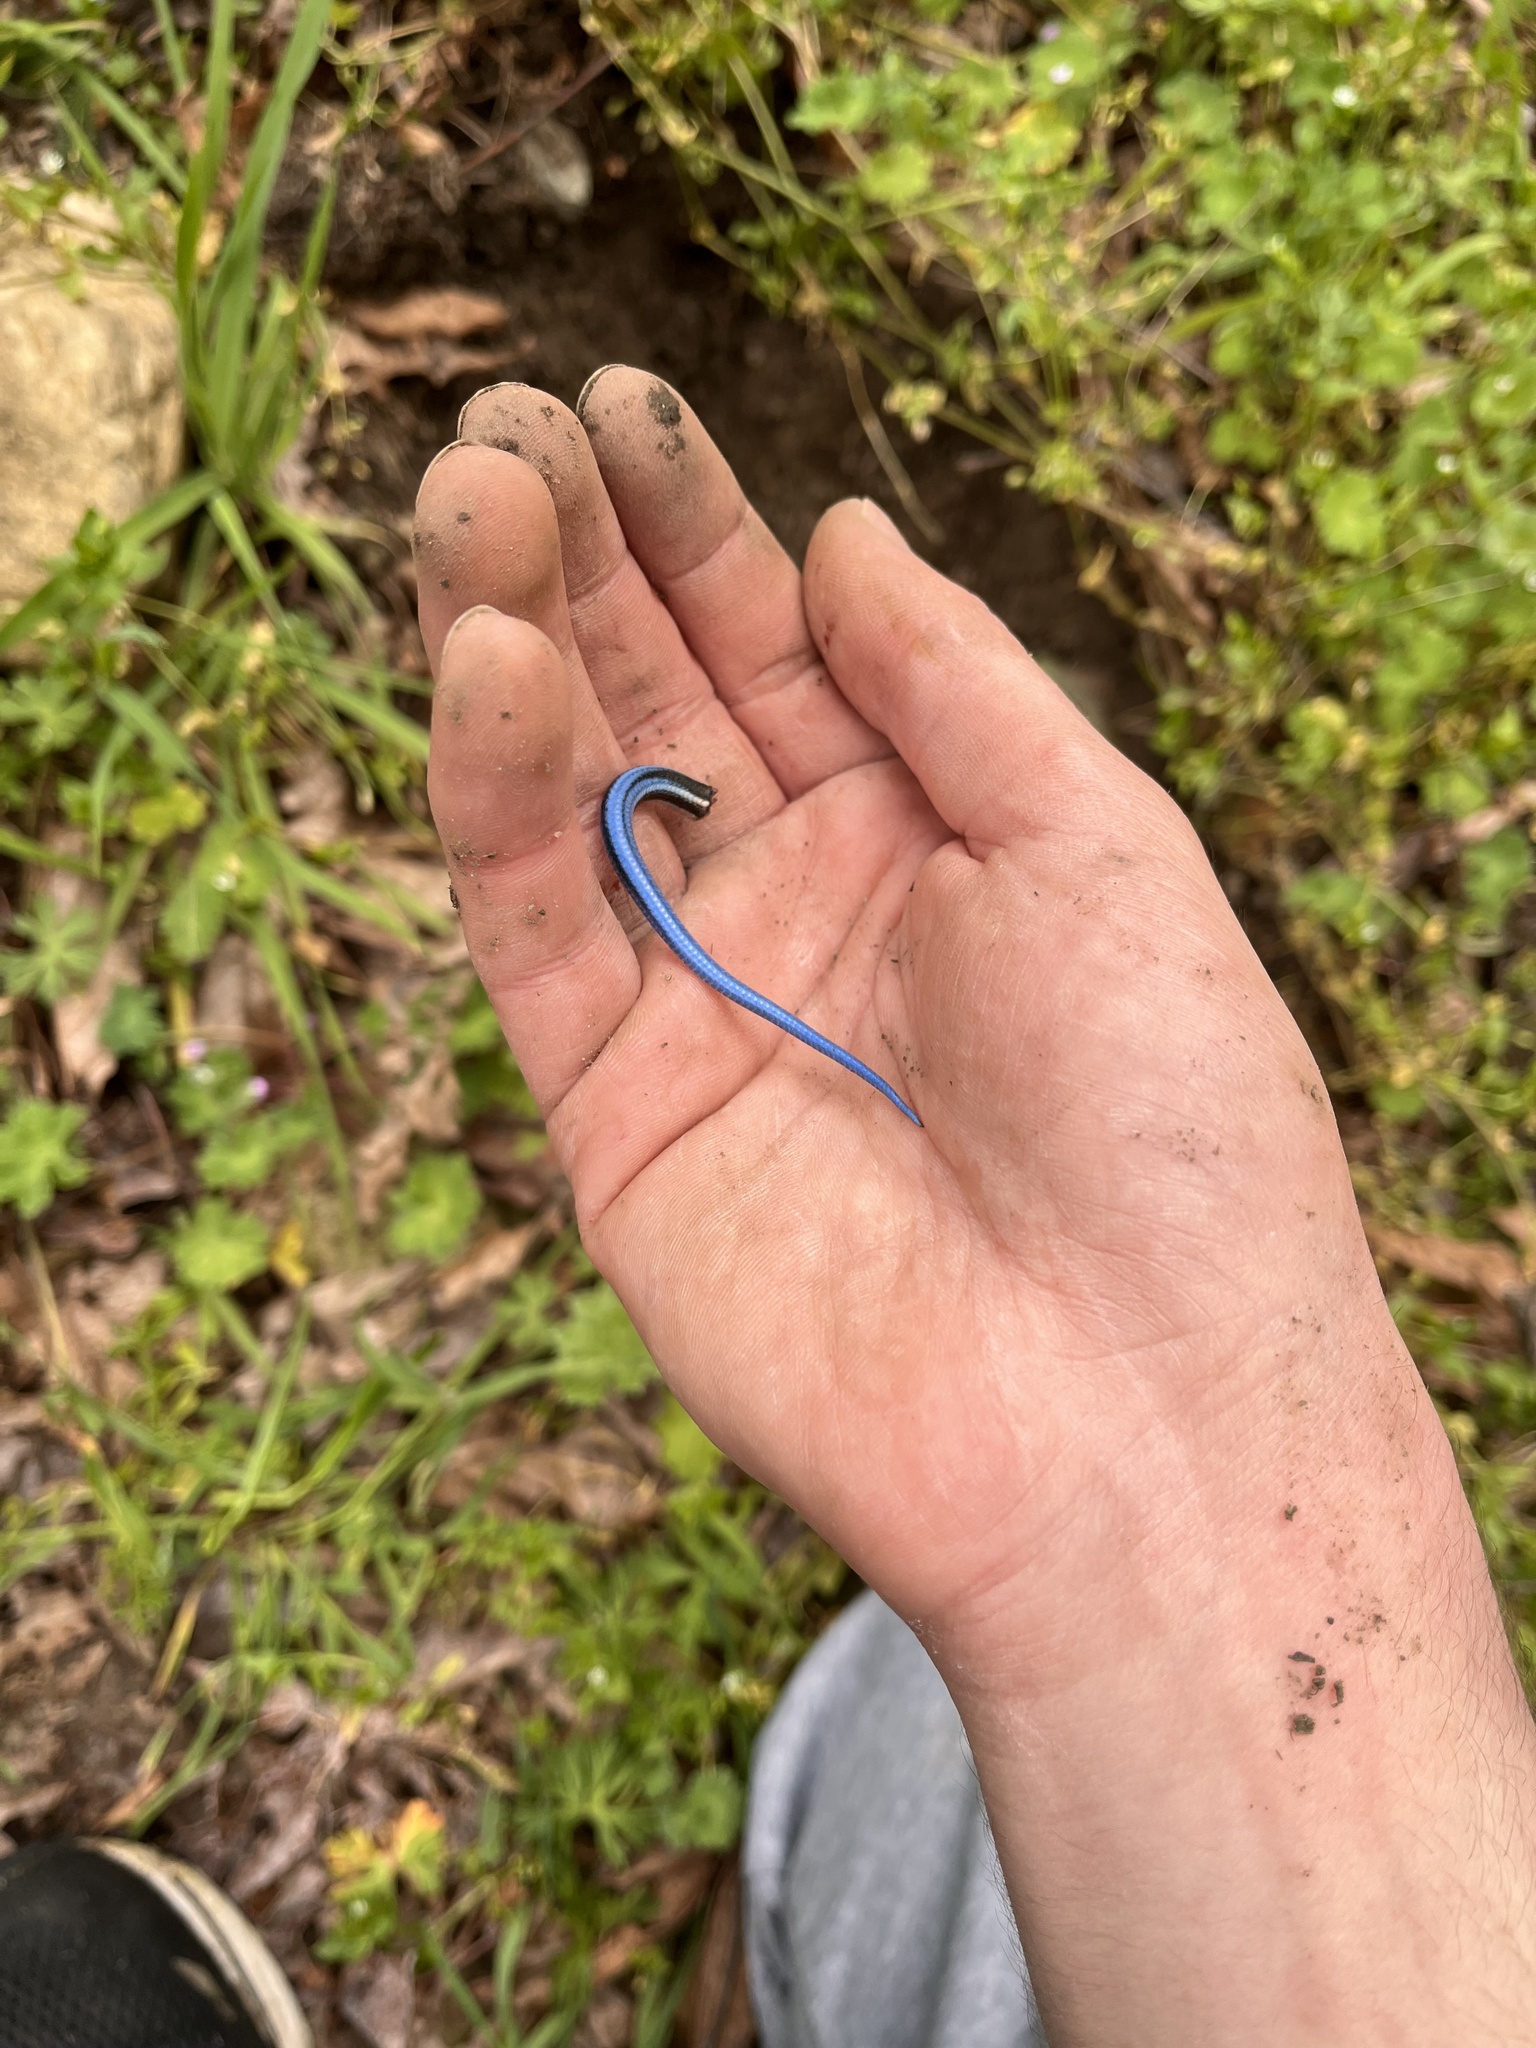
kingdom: Animalia
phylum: Chordata
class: Squamata
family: Scincidae
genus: Plestiodon
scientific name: Plestiodon skiltonianus
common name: Coronado island skink [interparietalis]
